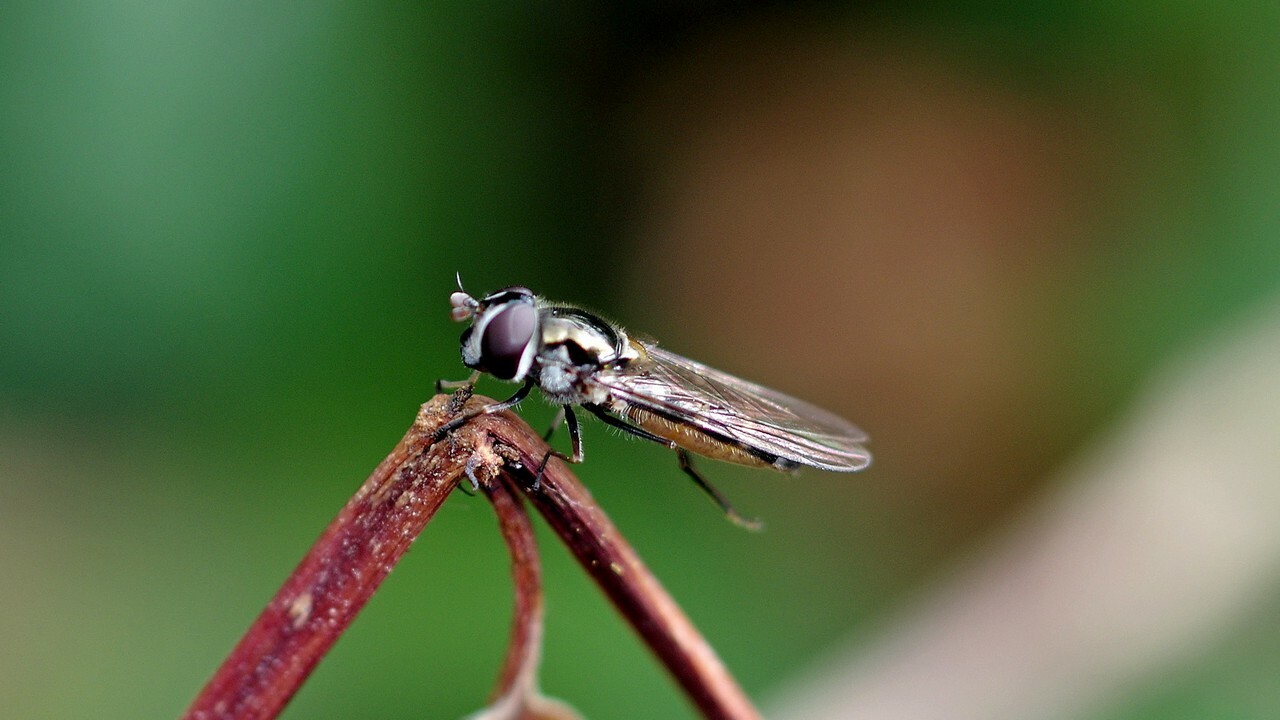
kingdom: Animalia
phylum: Arthropoda
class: Insecta
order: Diptera
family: Syrphidae
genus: Melangyna
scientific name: Melangyna novaezelandiae
